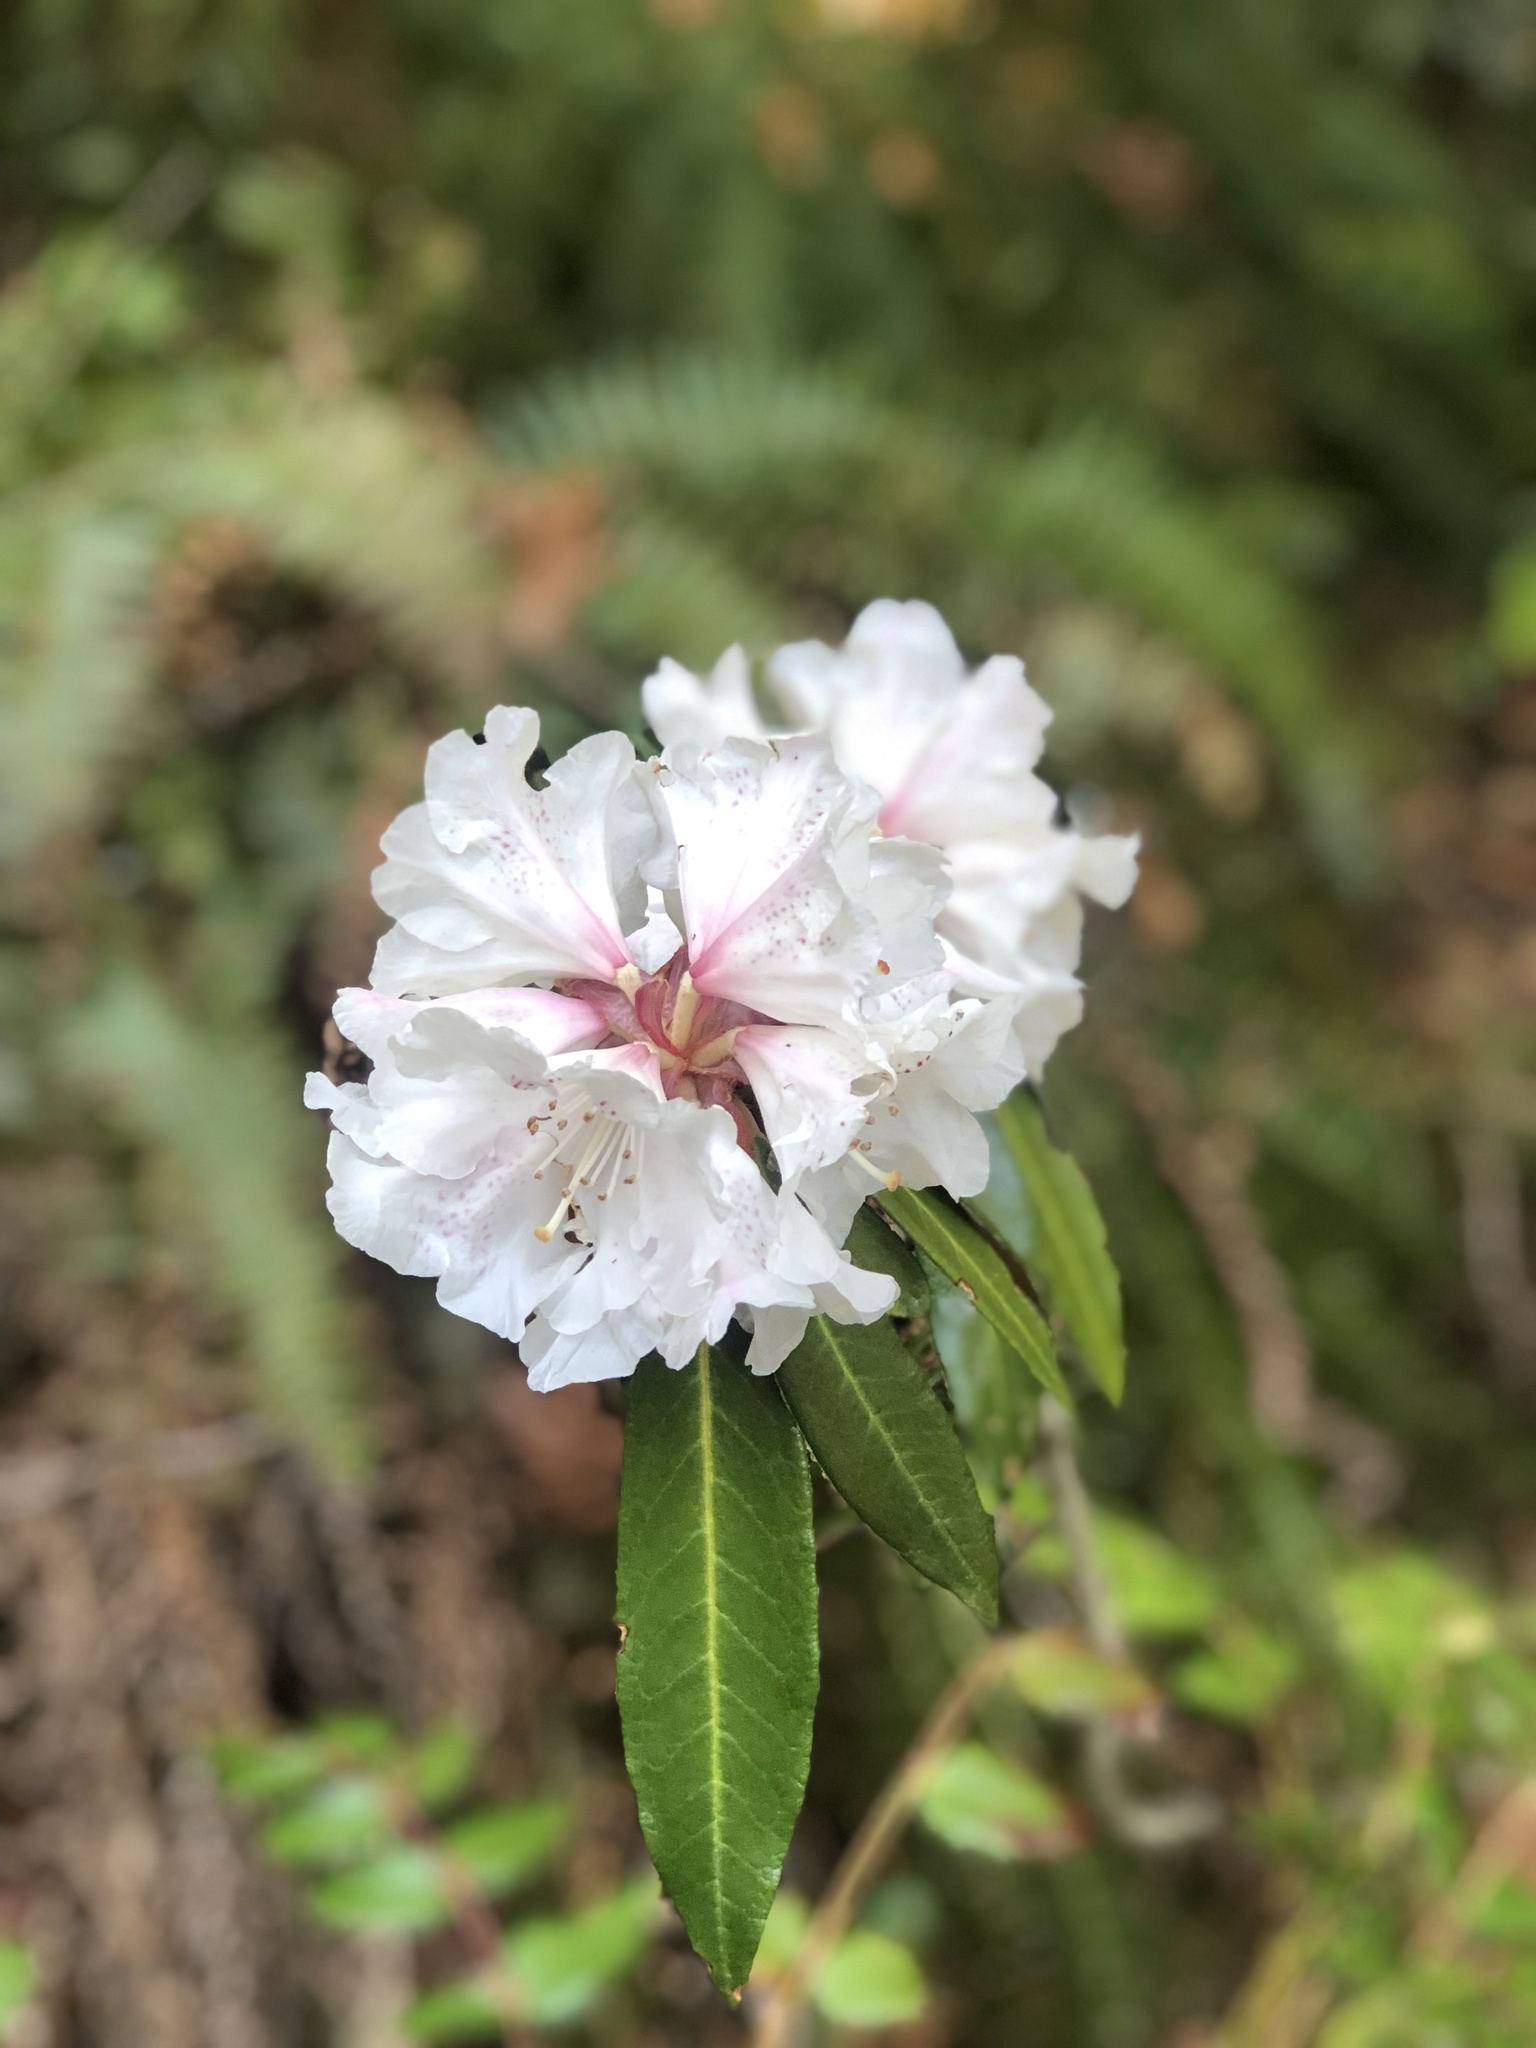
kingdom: Plantae
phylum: Tracheophyta
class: Magnoliopsida
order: Ericales
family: Ericaceae
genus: Rhododendron
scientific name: Rhododendron macrophyllum
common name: California rose bay
